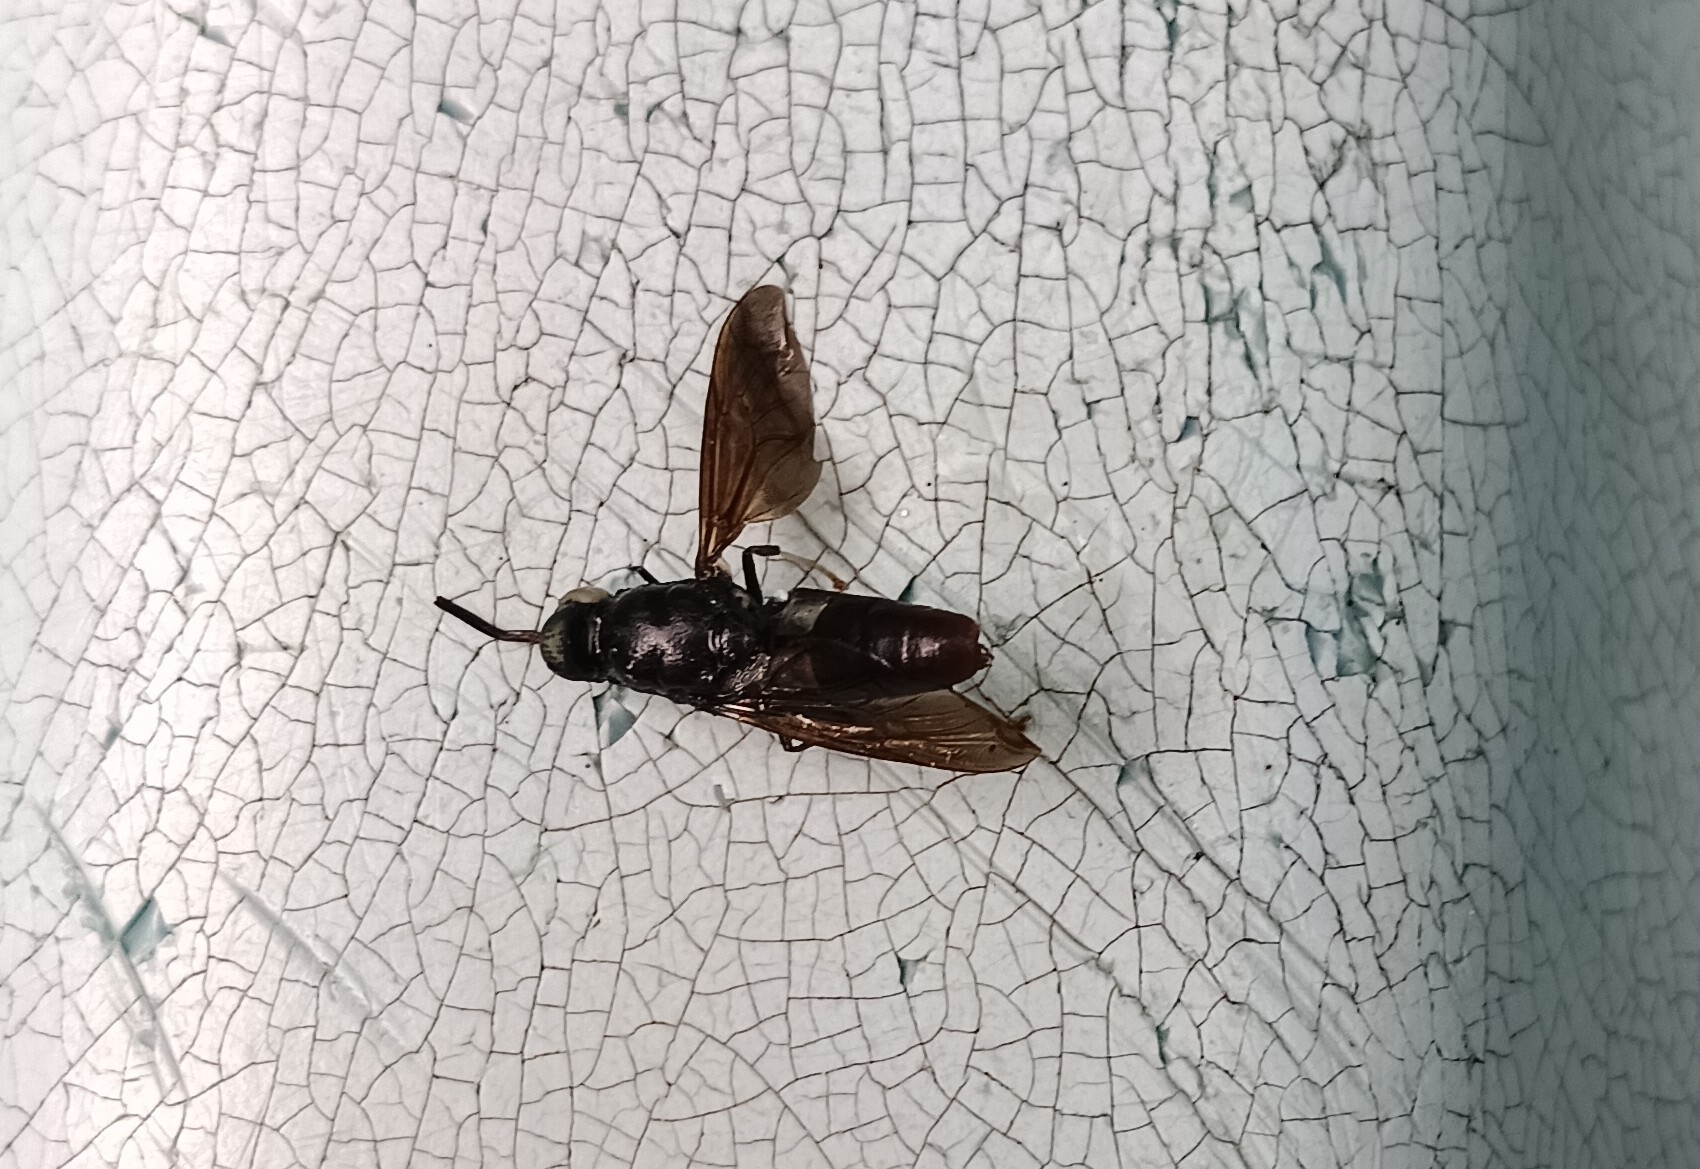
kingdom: Animalia
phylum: Arthropoda
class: Insecta
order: Diptera
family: Stratiomyidae
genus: Hermetia
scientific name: Hermetia illucens
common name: Black soldier fly
